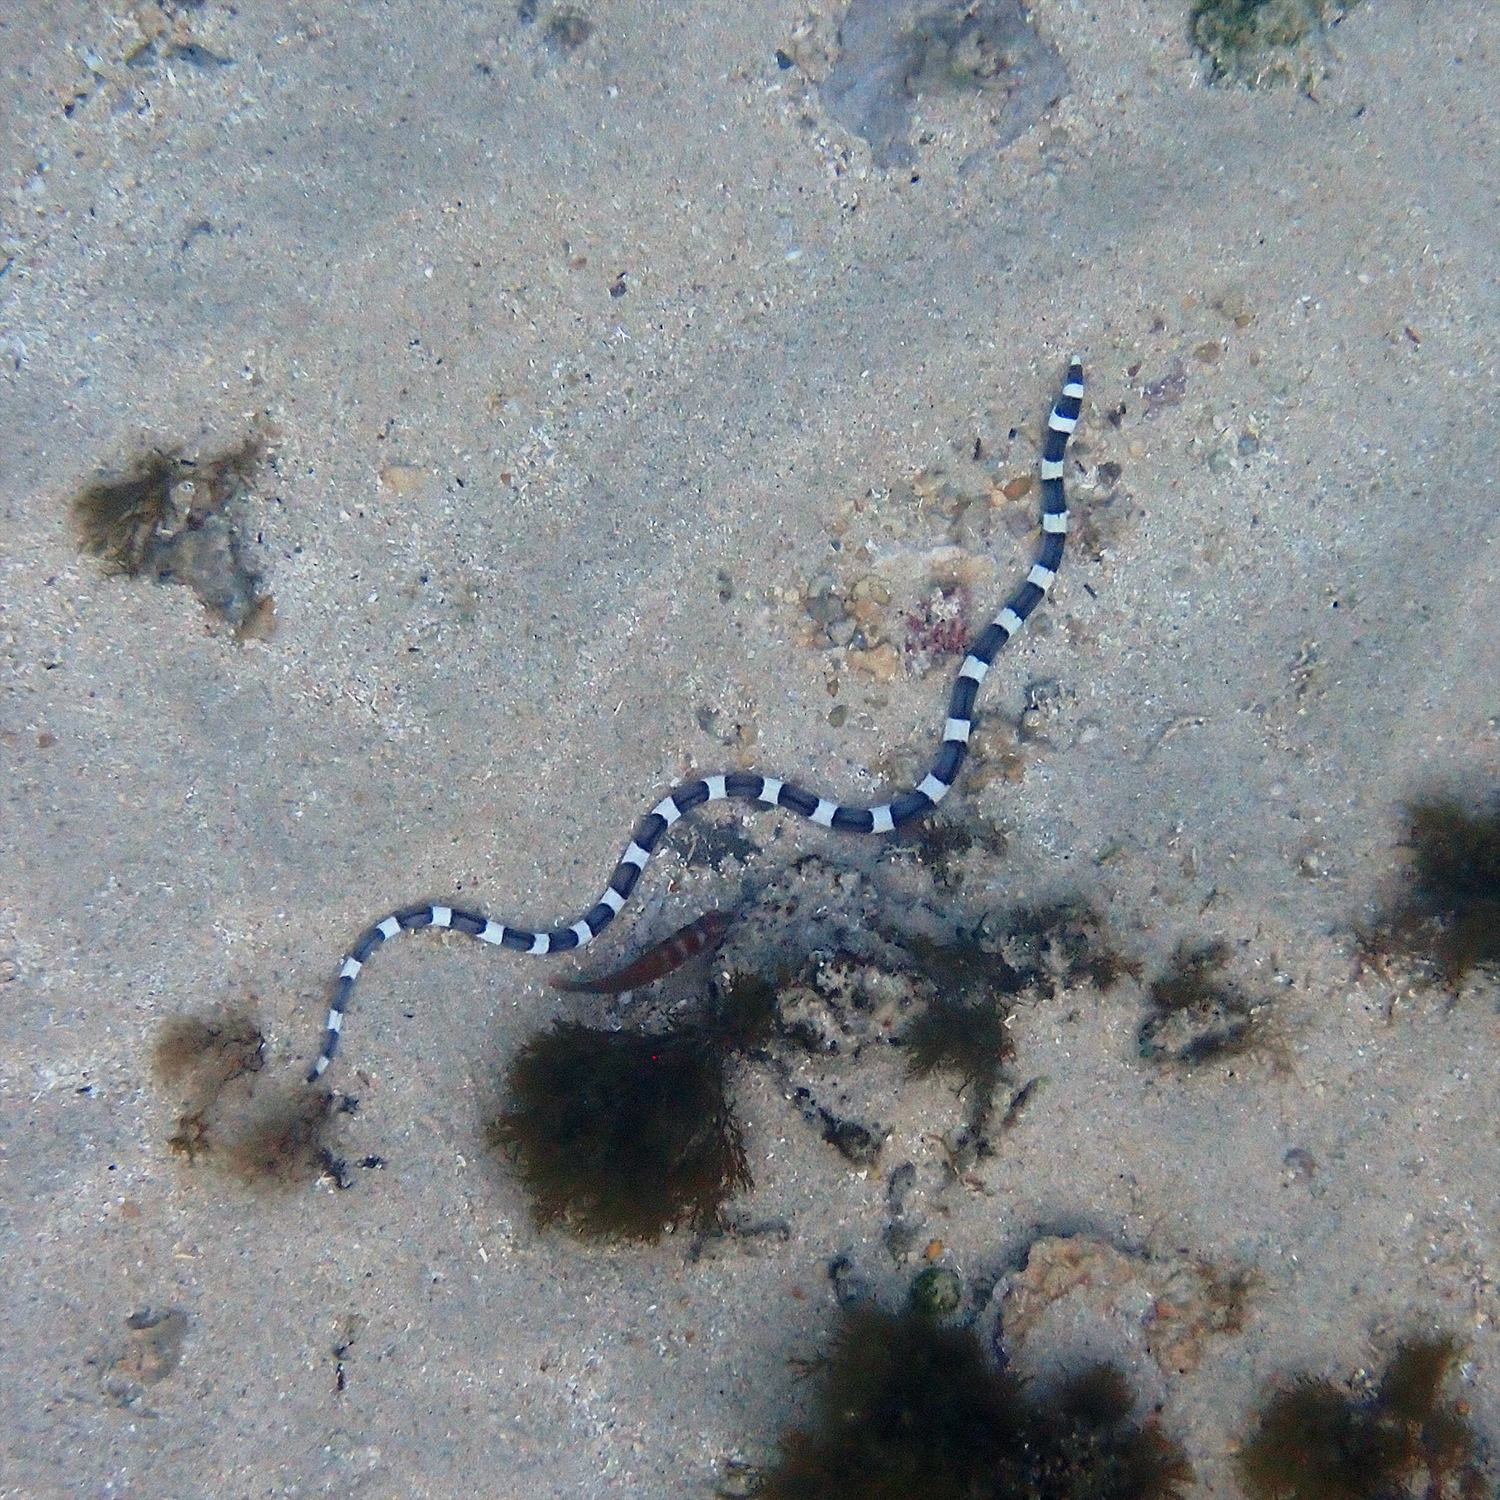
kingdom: Animalia
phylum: Chordata
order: Anguilliformes
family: Ophichthidae
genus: Leiuranus
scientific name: Leiuranus semicinctus
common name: Saddled snake eel
